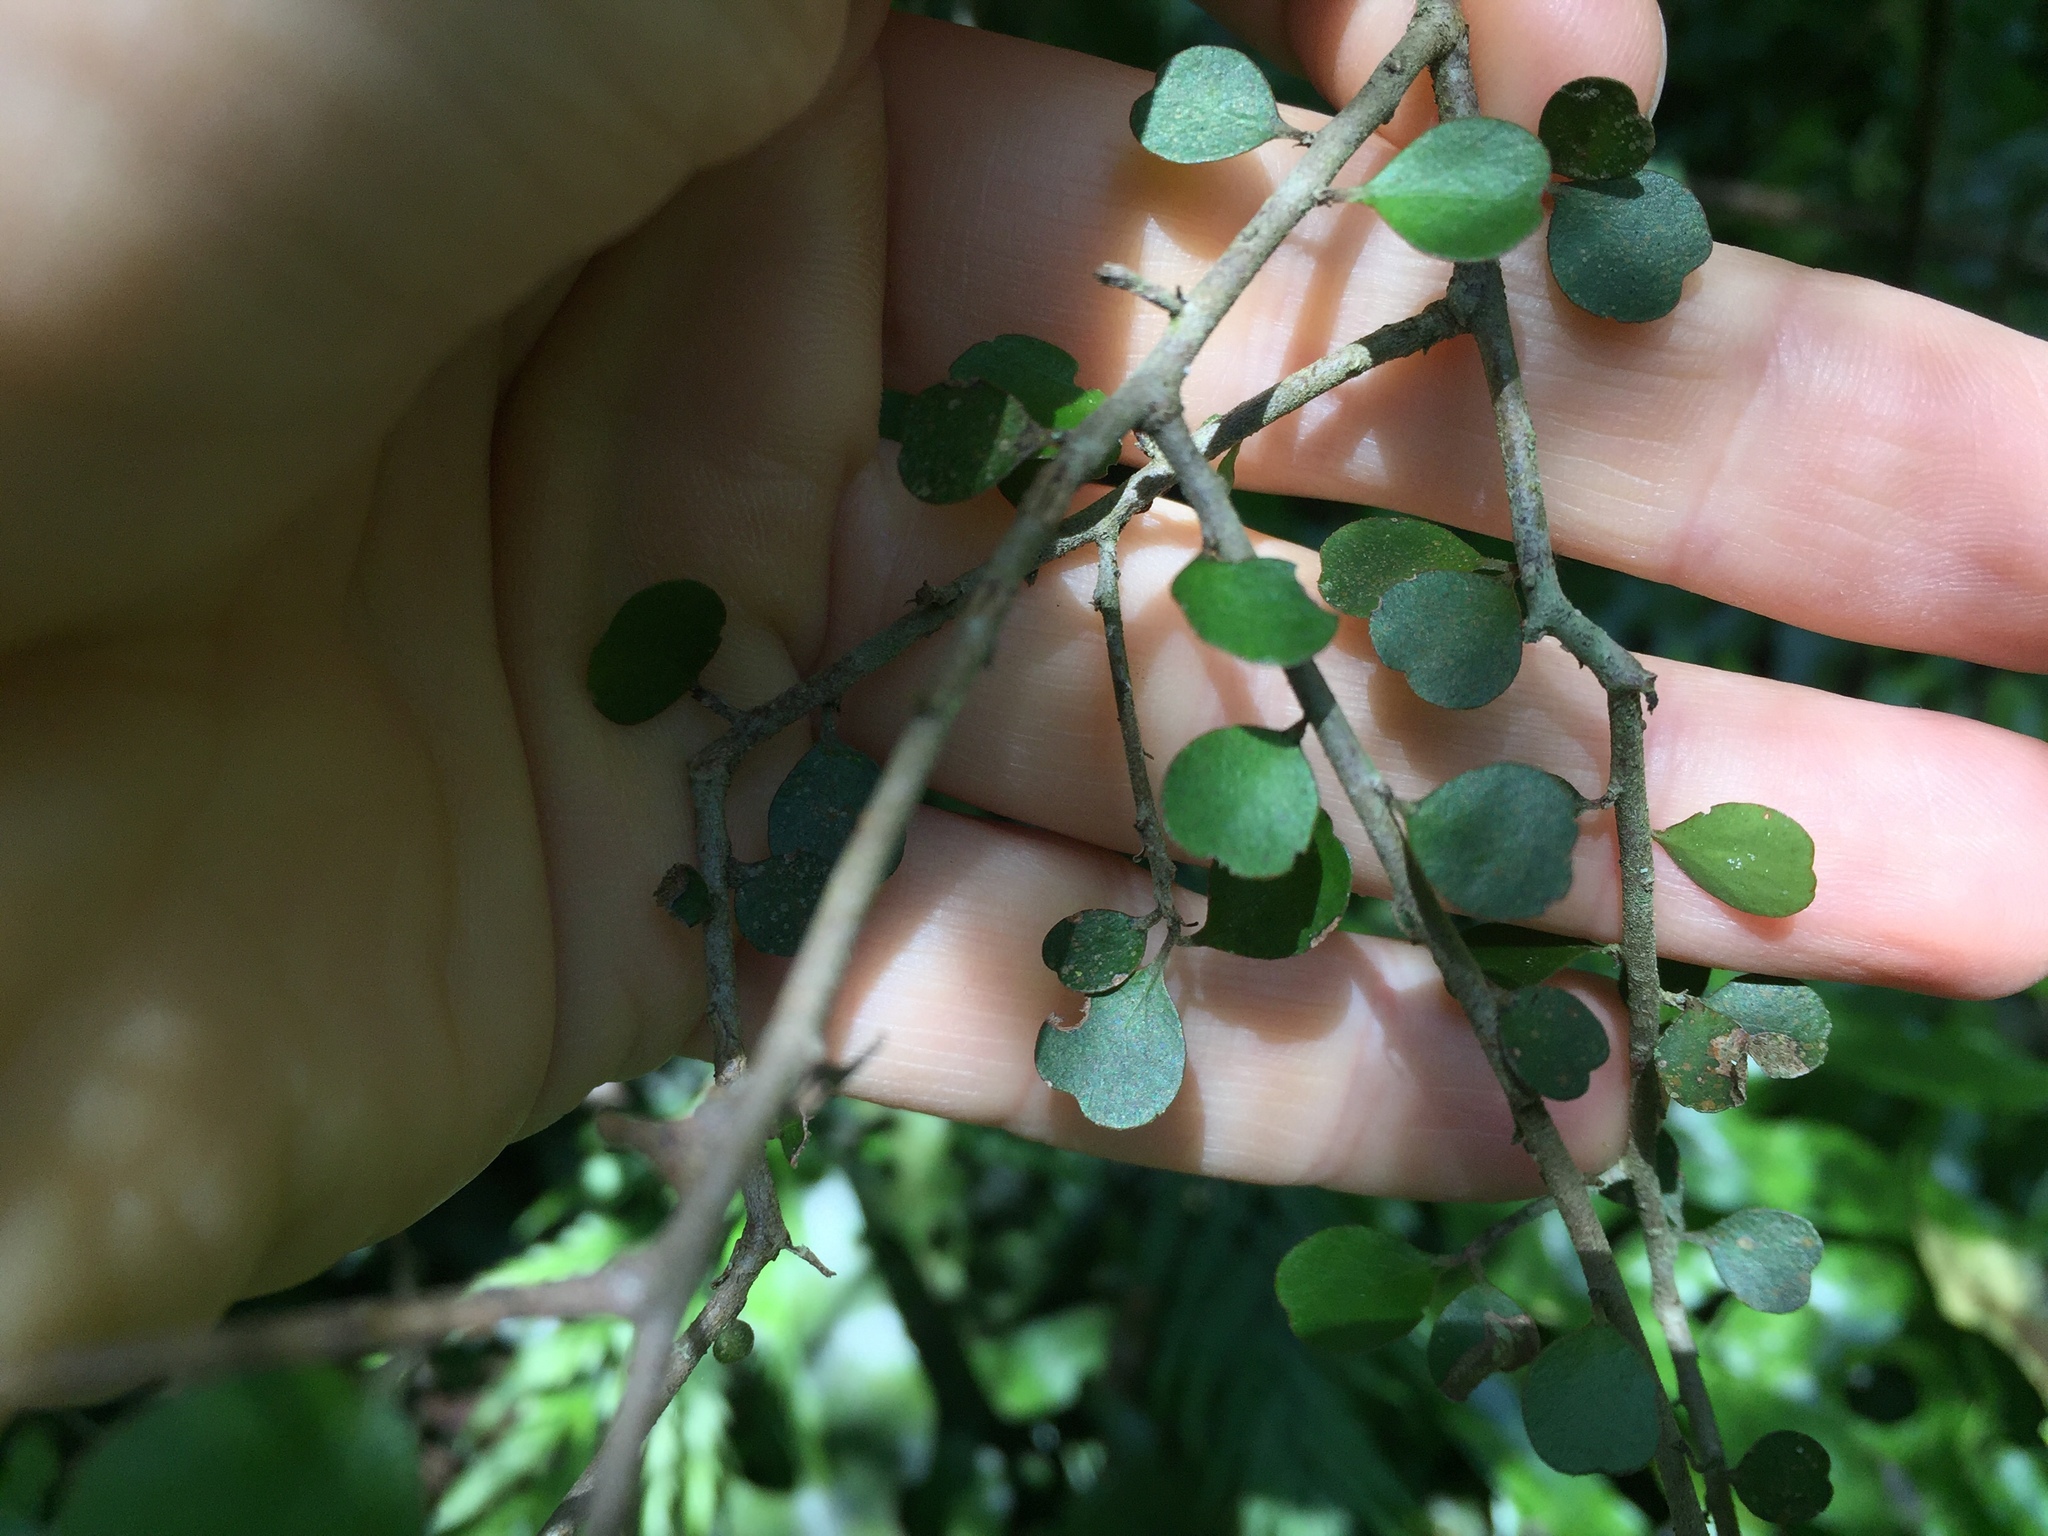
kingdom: Plantae
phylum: Tracheophyta
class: Magnoliopsida
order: Ericales
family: Primulaceae
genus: Myrsine
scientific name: Myrsine divaricata
